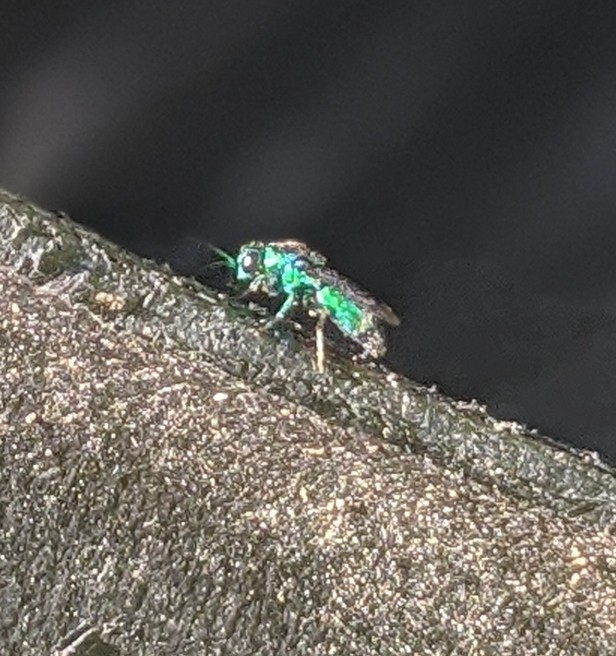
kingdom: Animalia
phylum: Arthropoda
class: Insecta
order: Hymenoptera
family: Chrysididae
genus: Chrysis
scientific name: Chrysis angolensis
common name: Cuckoo wasp
